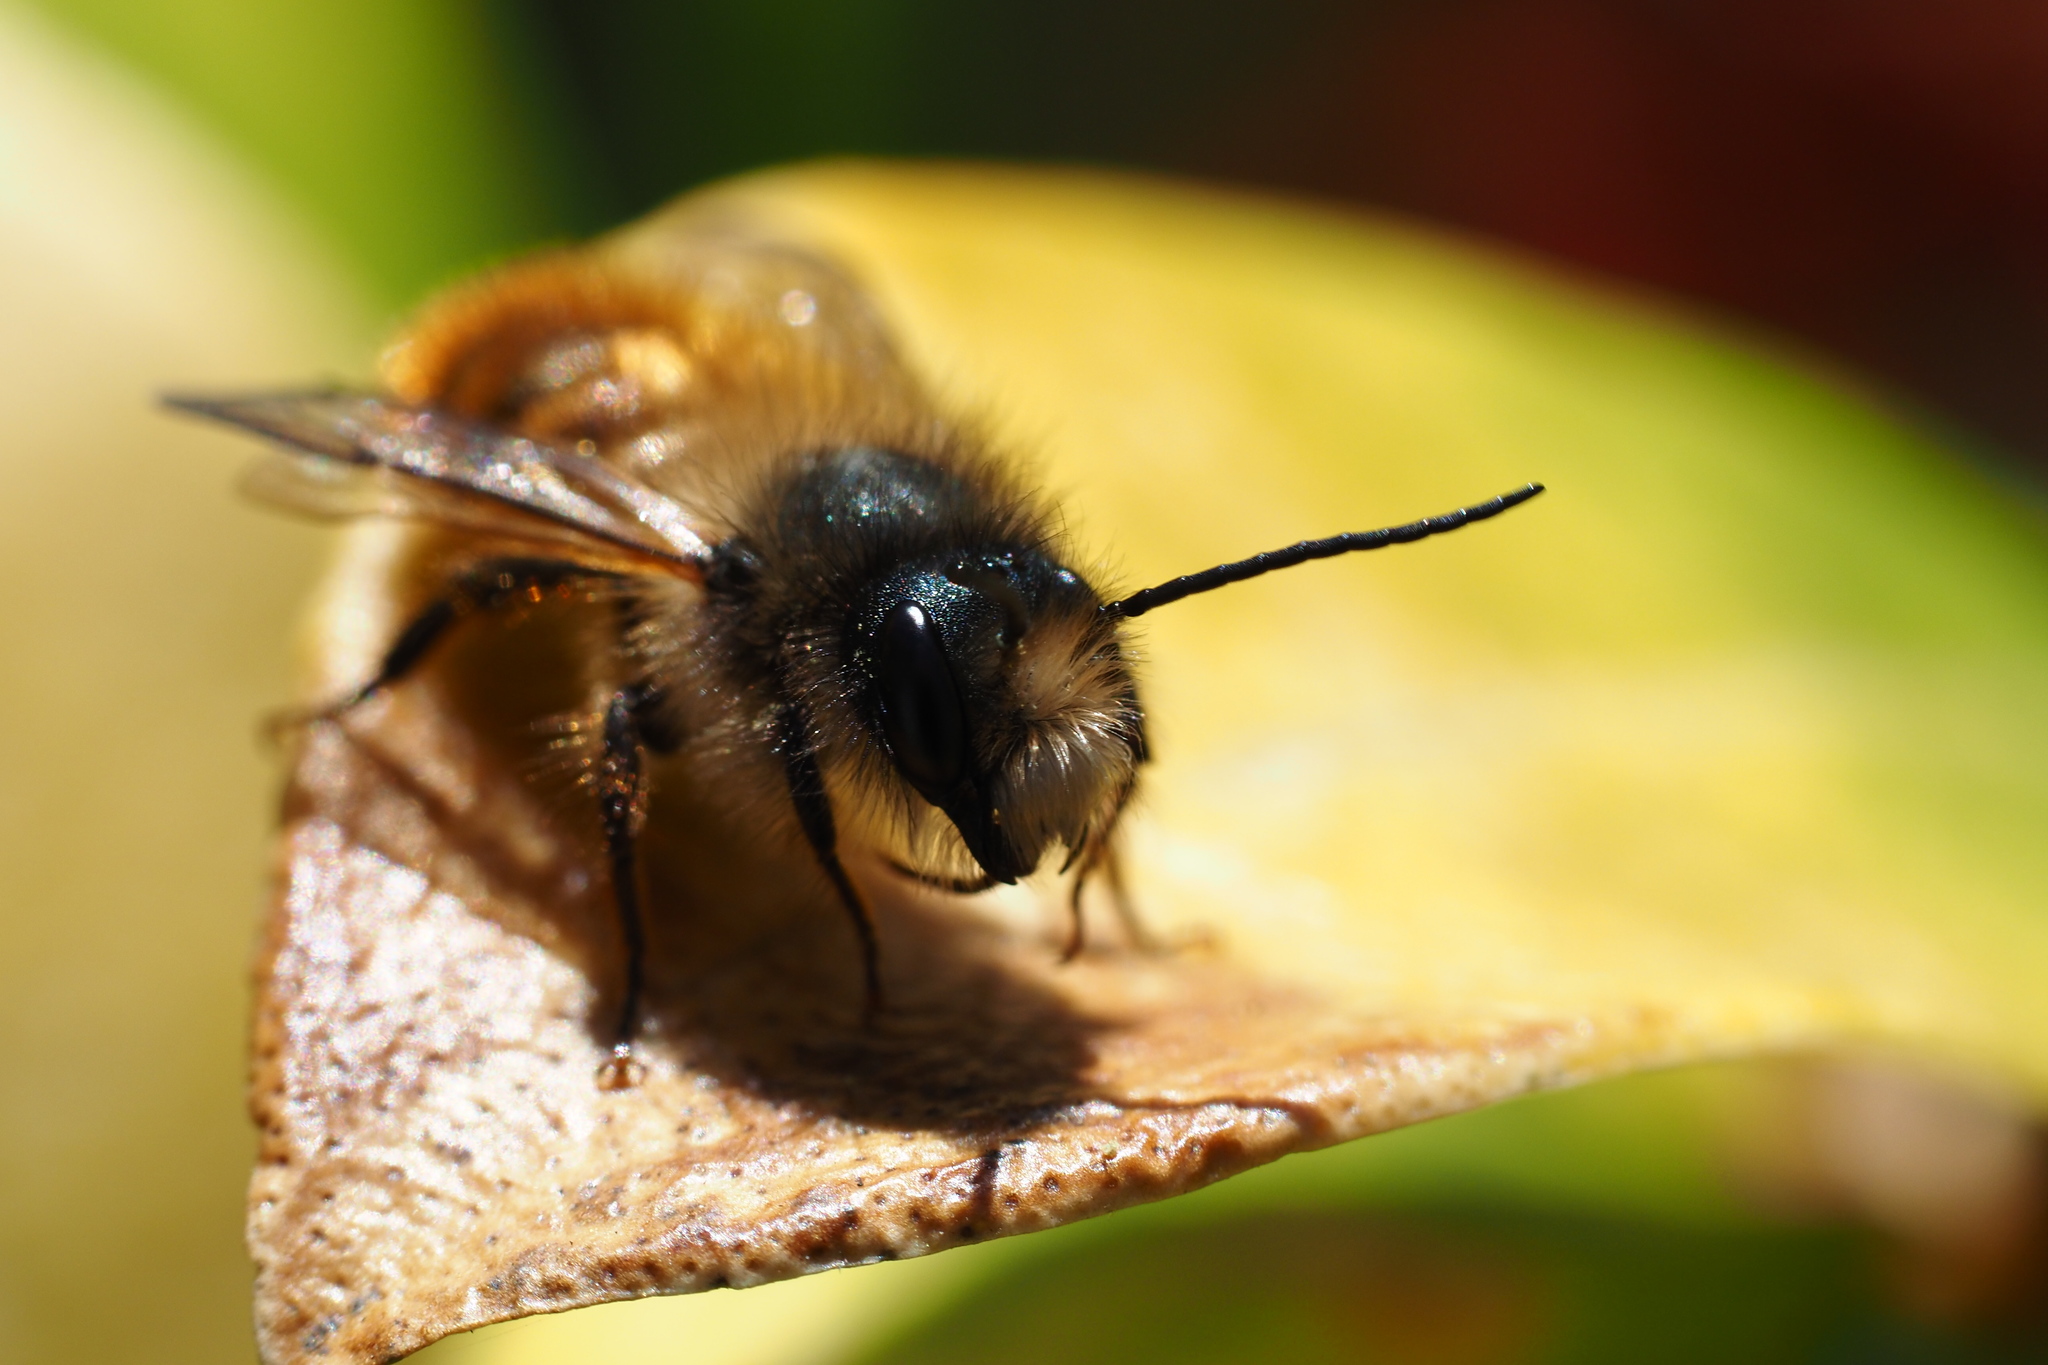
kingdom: Animalia
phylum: Arthropoda
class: Insecta
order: Hymenoptera
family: Megachilidae
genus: Osmia
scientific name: Osmia bicornis
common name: Red mason bee
